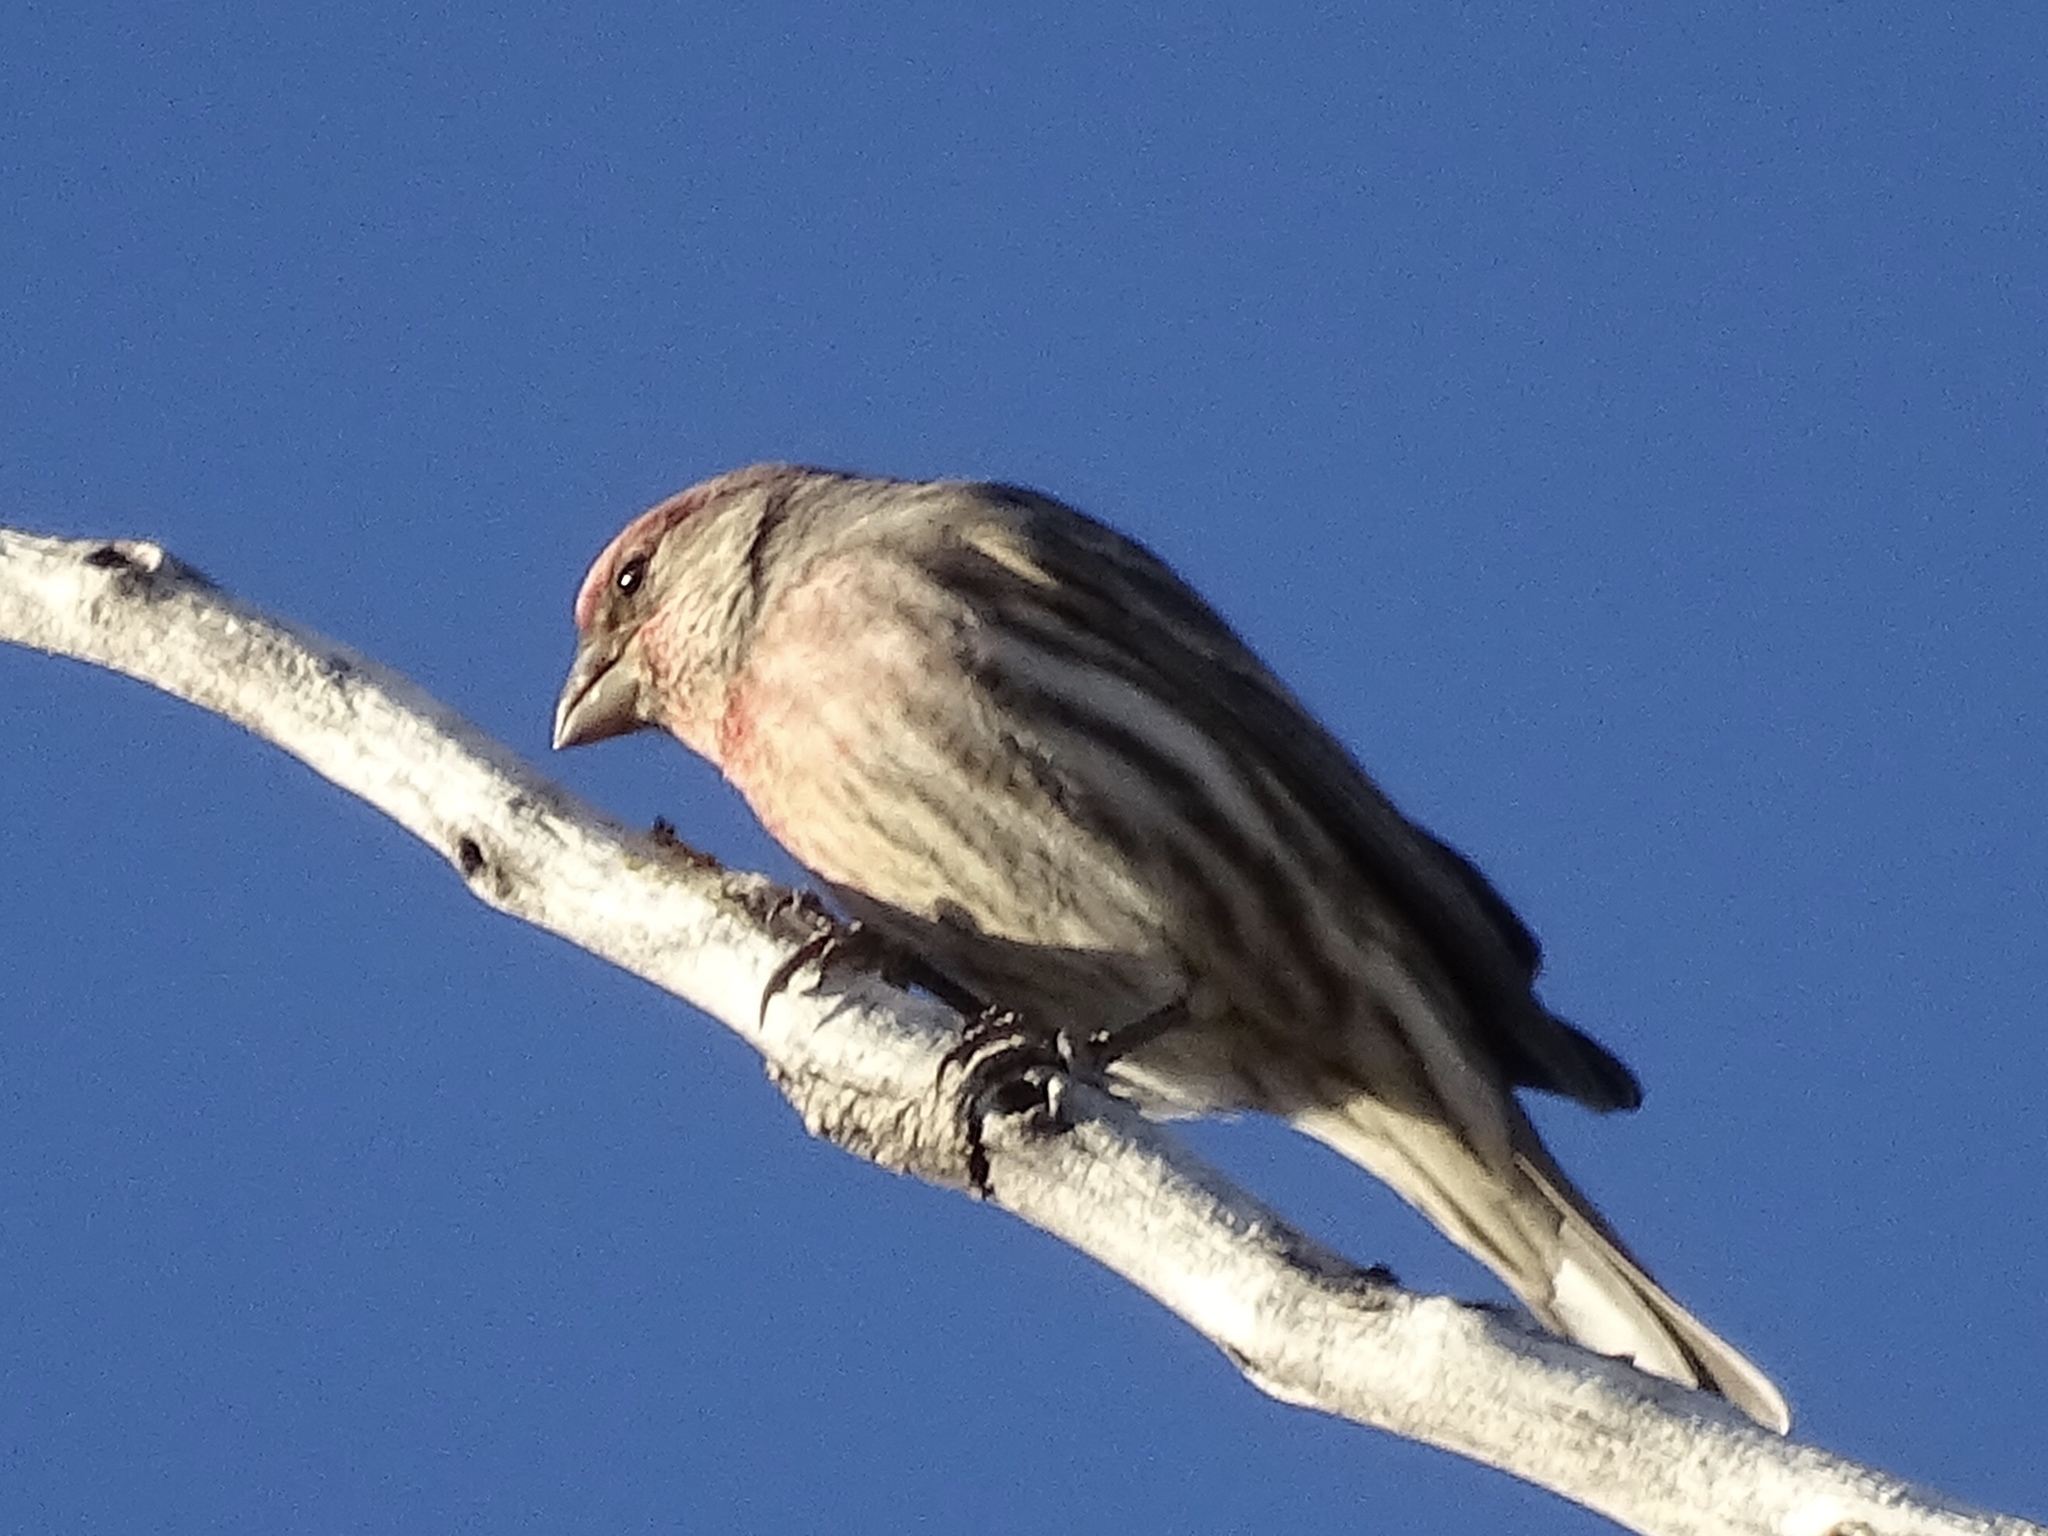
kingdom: Animalia
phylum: Chordata
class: Aves
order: Passeriformes
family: Fringillidae
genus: Haemorhous
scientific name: Haemorhous mexicanus
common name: House finch
